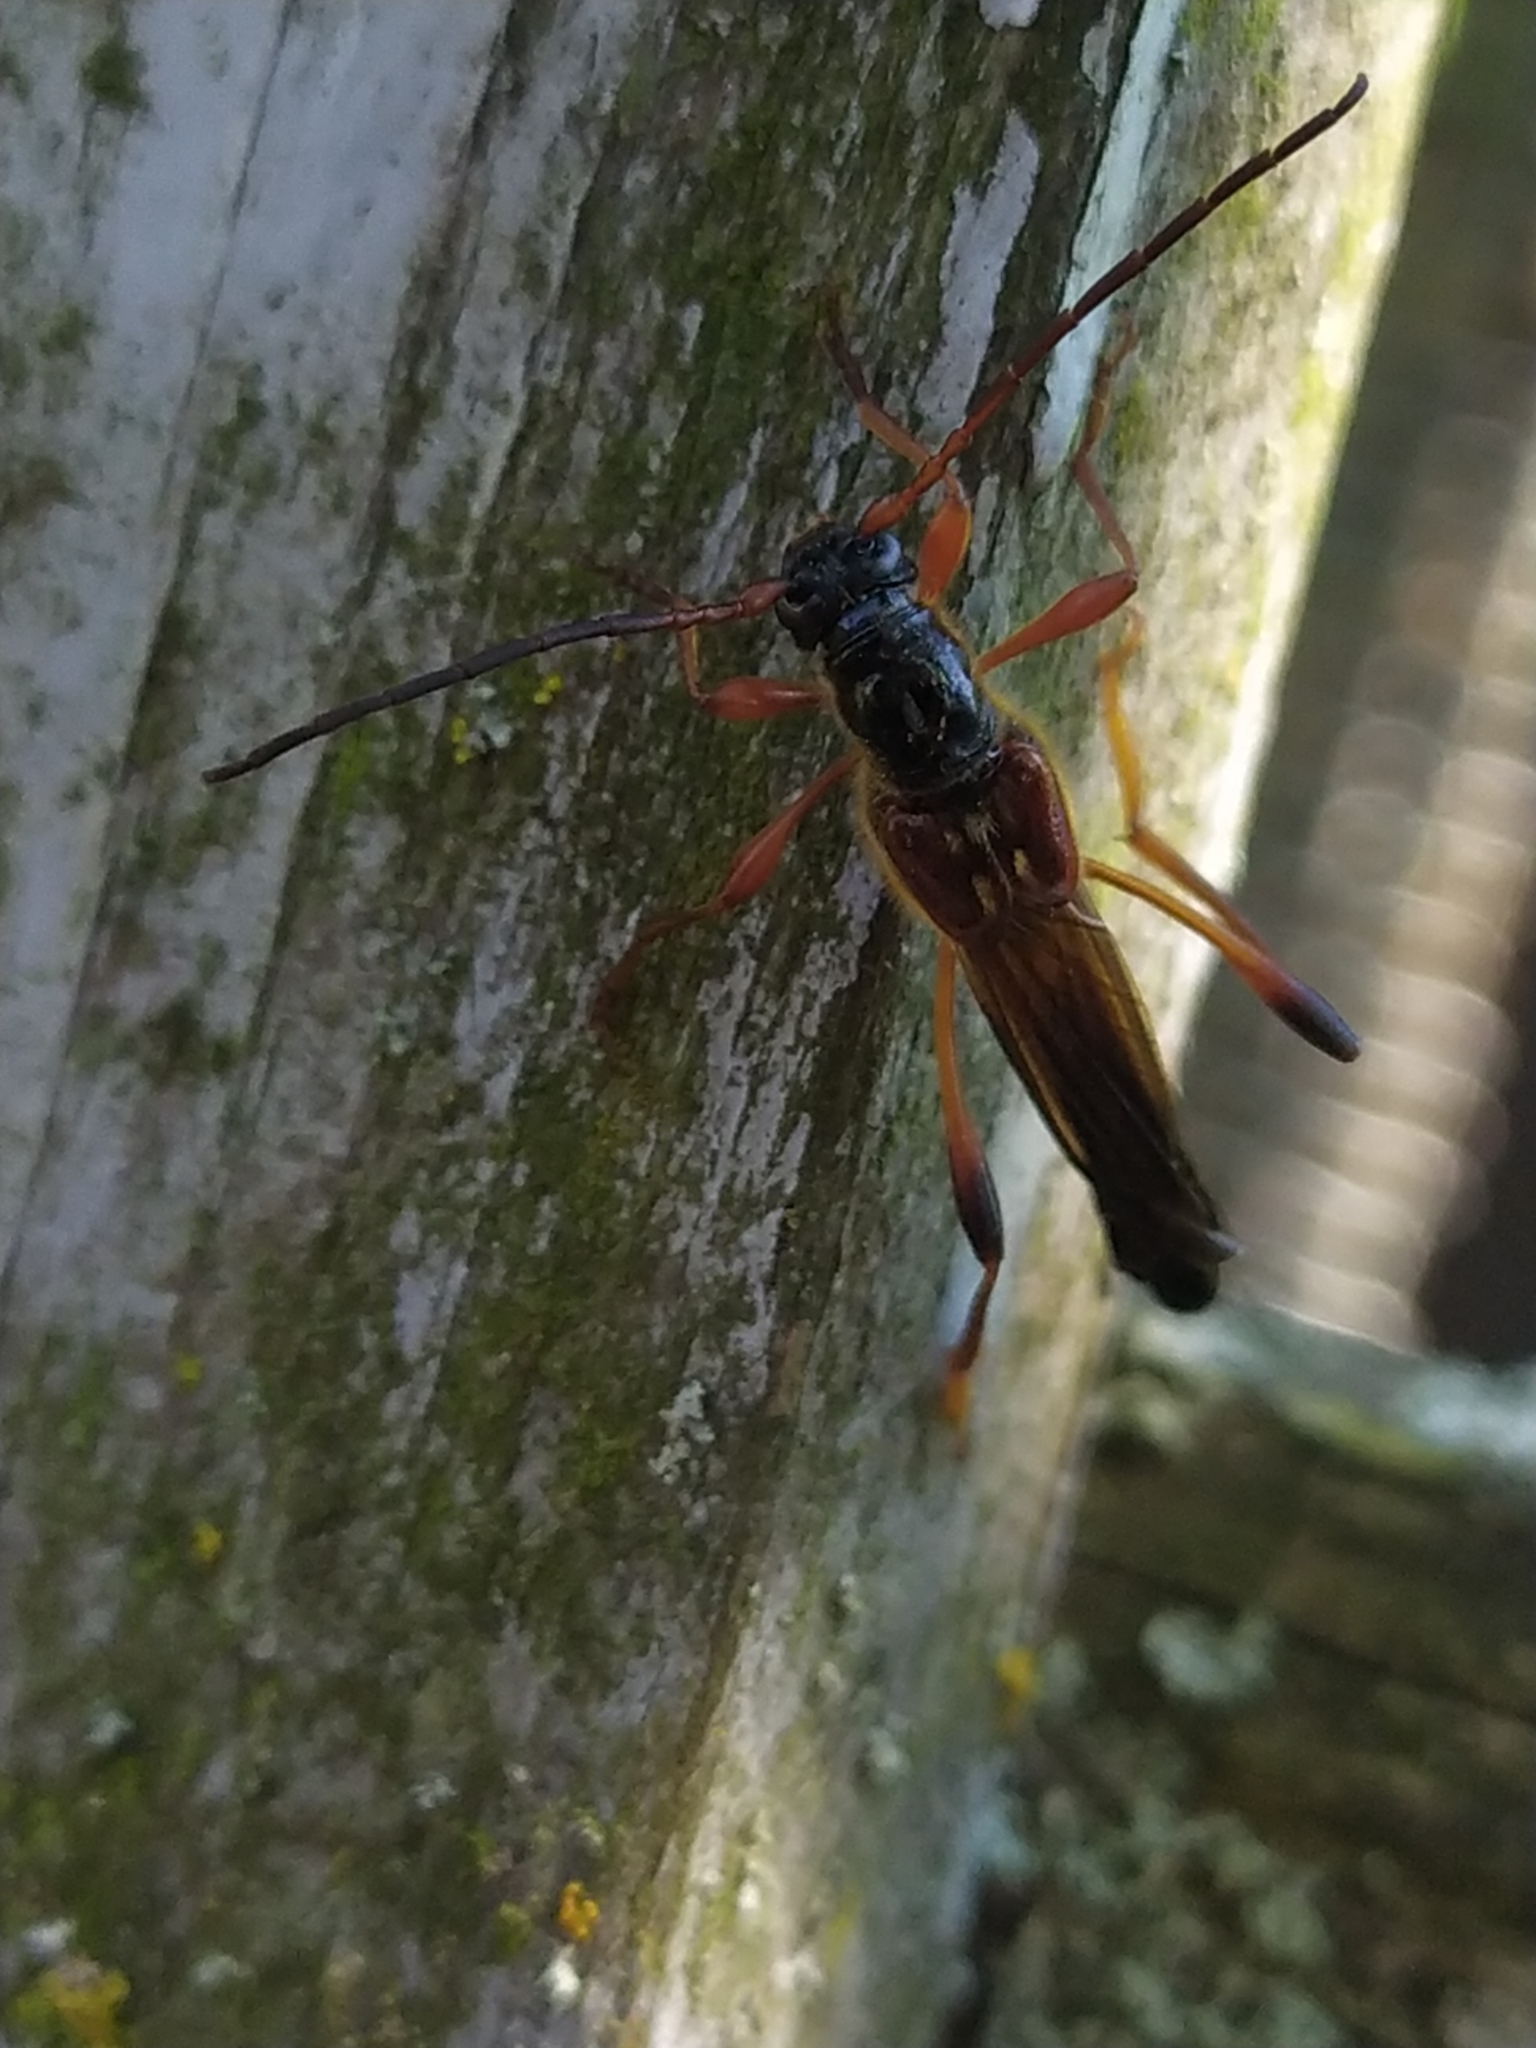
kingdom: Animalia
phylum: Arthropoda
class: Insecta
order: Coleoptera
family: Cerambycidae
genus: Necydalis
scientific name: Necydalis major
